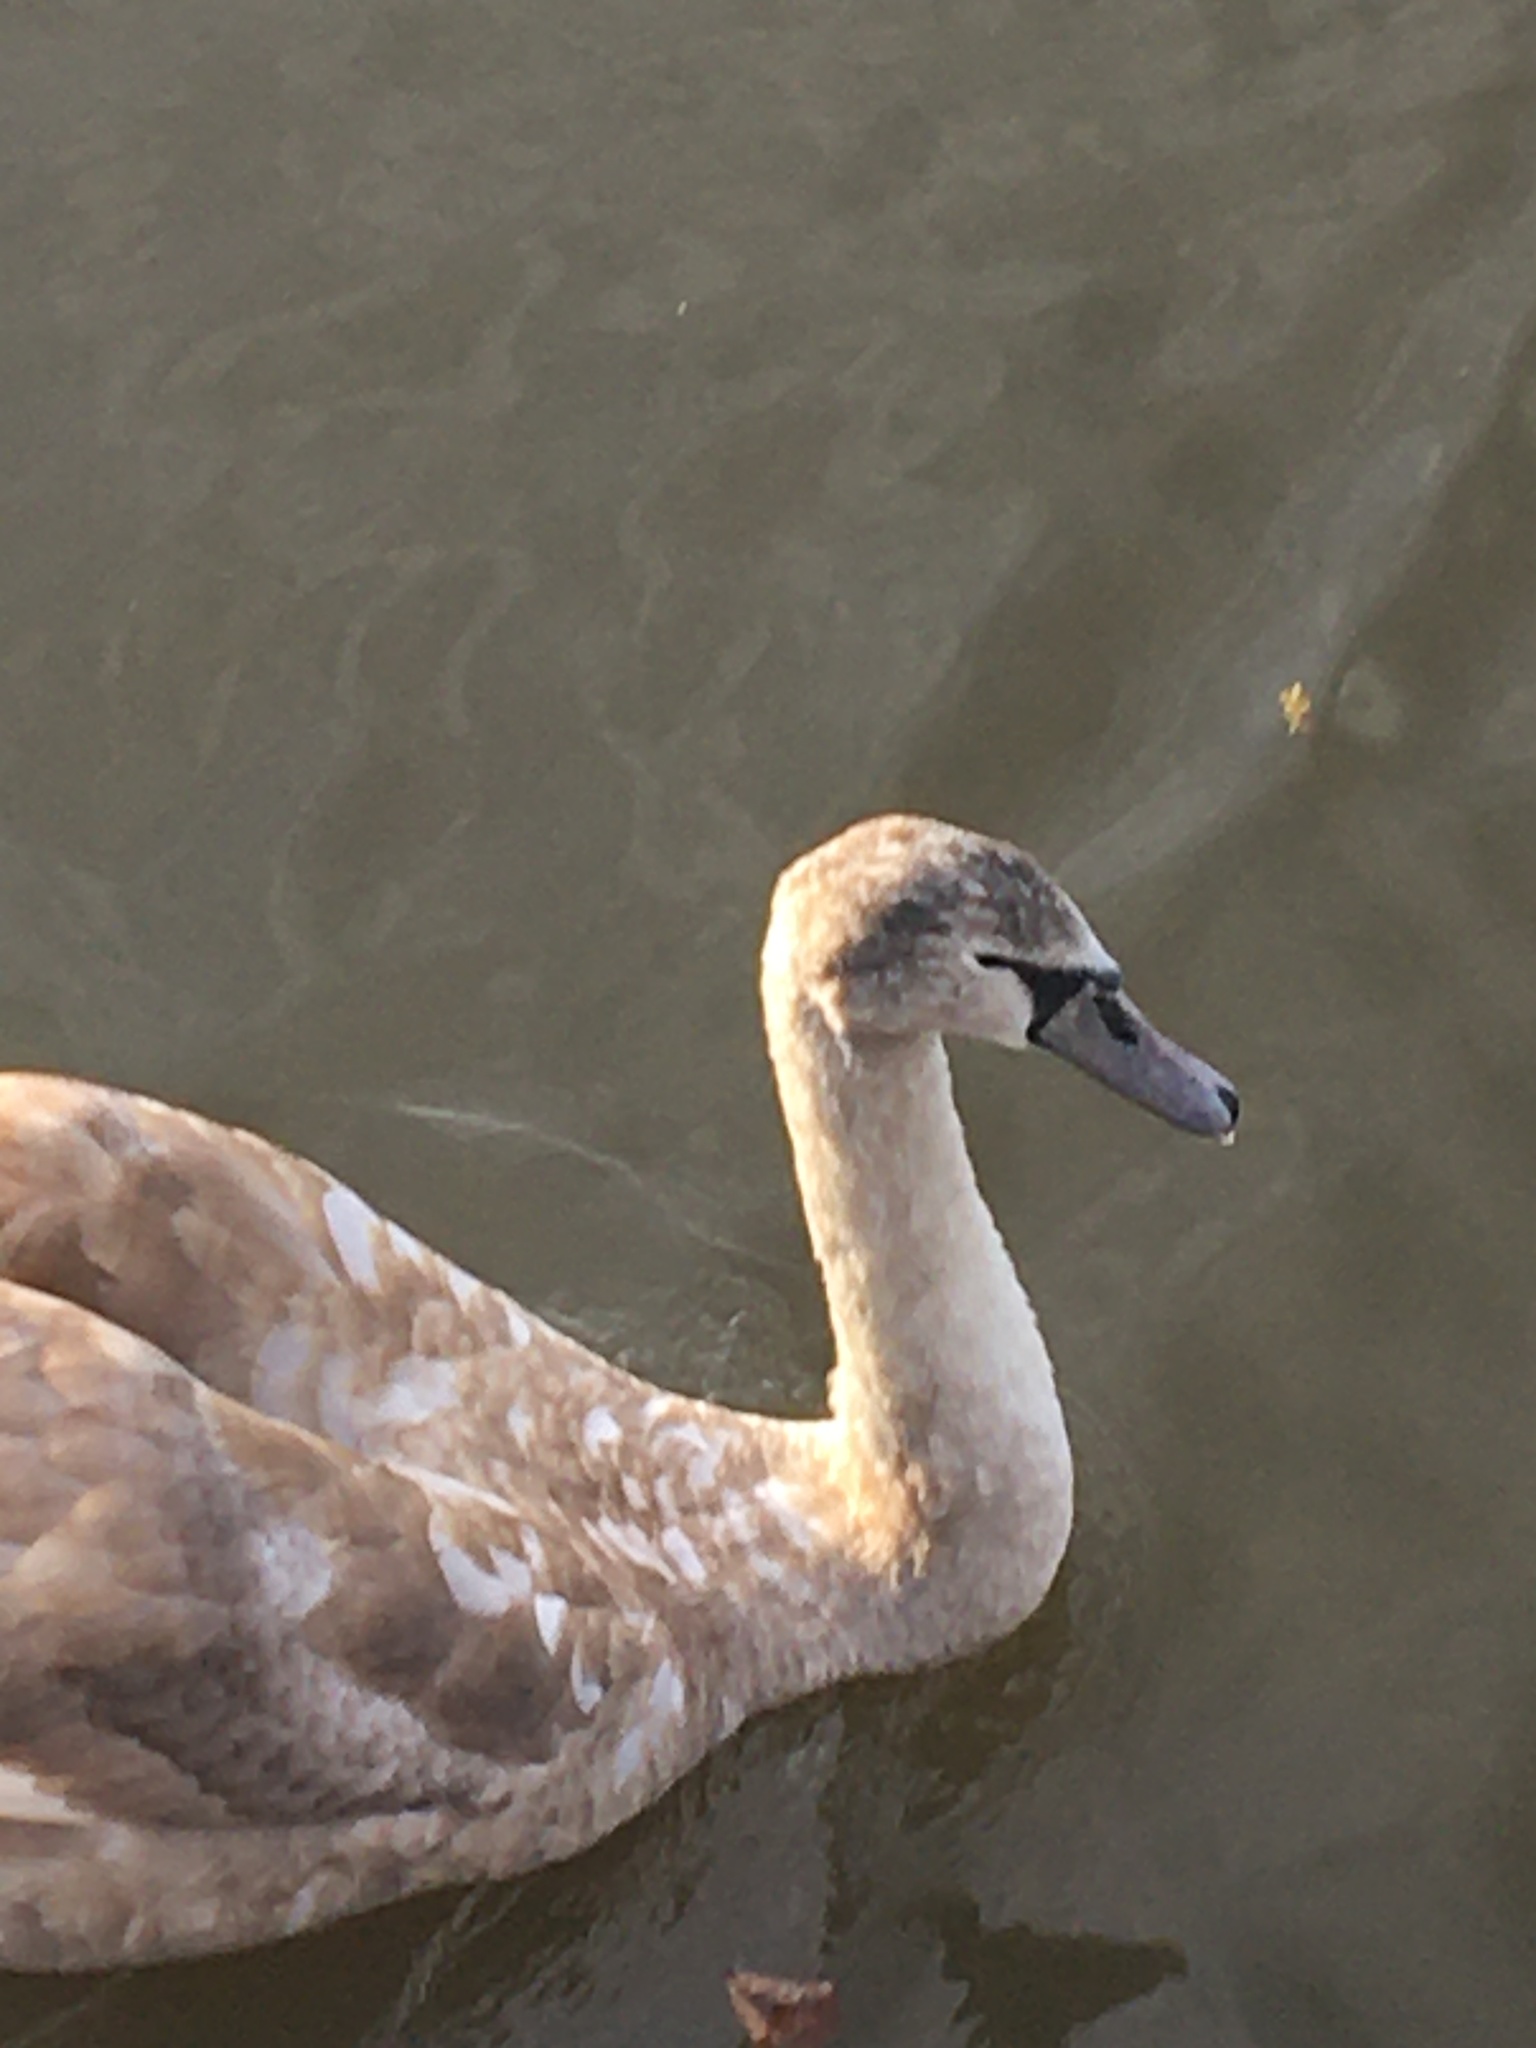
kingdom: Animalia
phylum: Chordata
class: Aves
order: Anseriformes
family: Anatidae
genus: Cygnus
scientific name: Cygnus olor
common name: Mute swan
